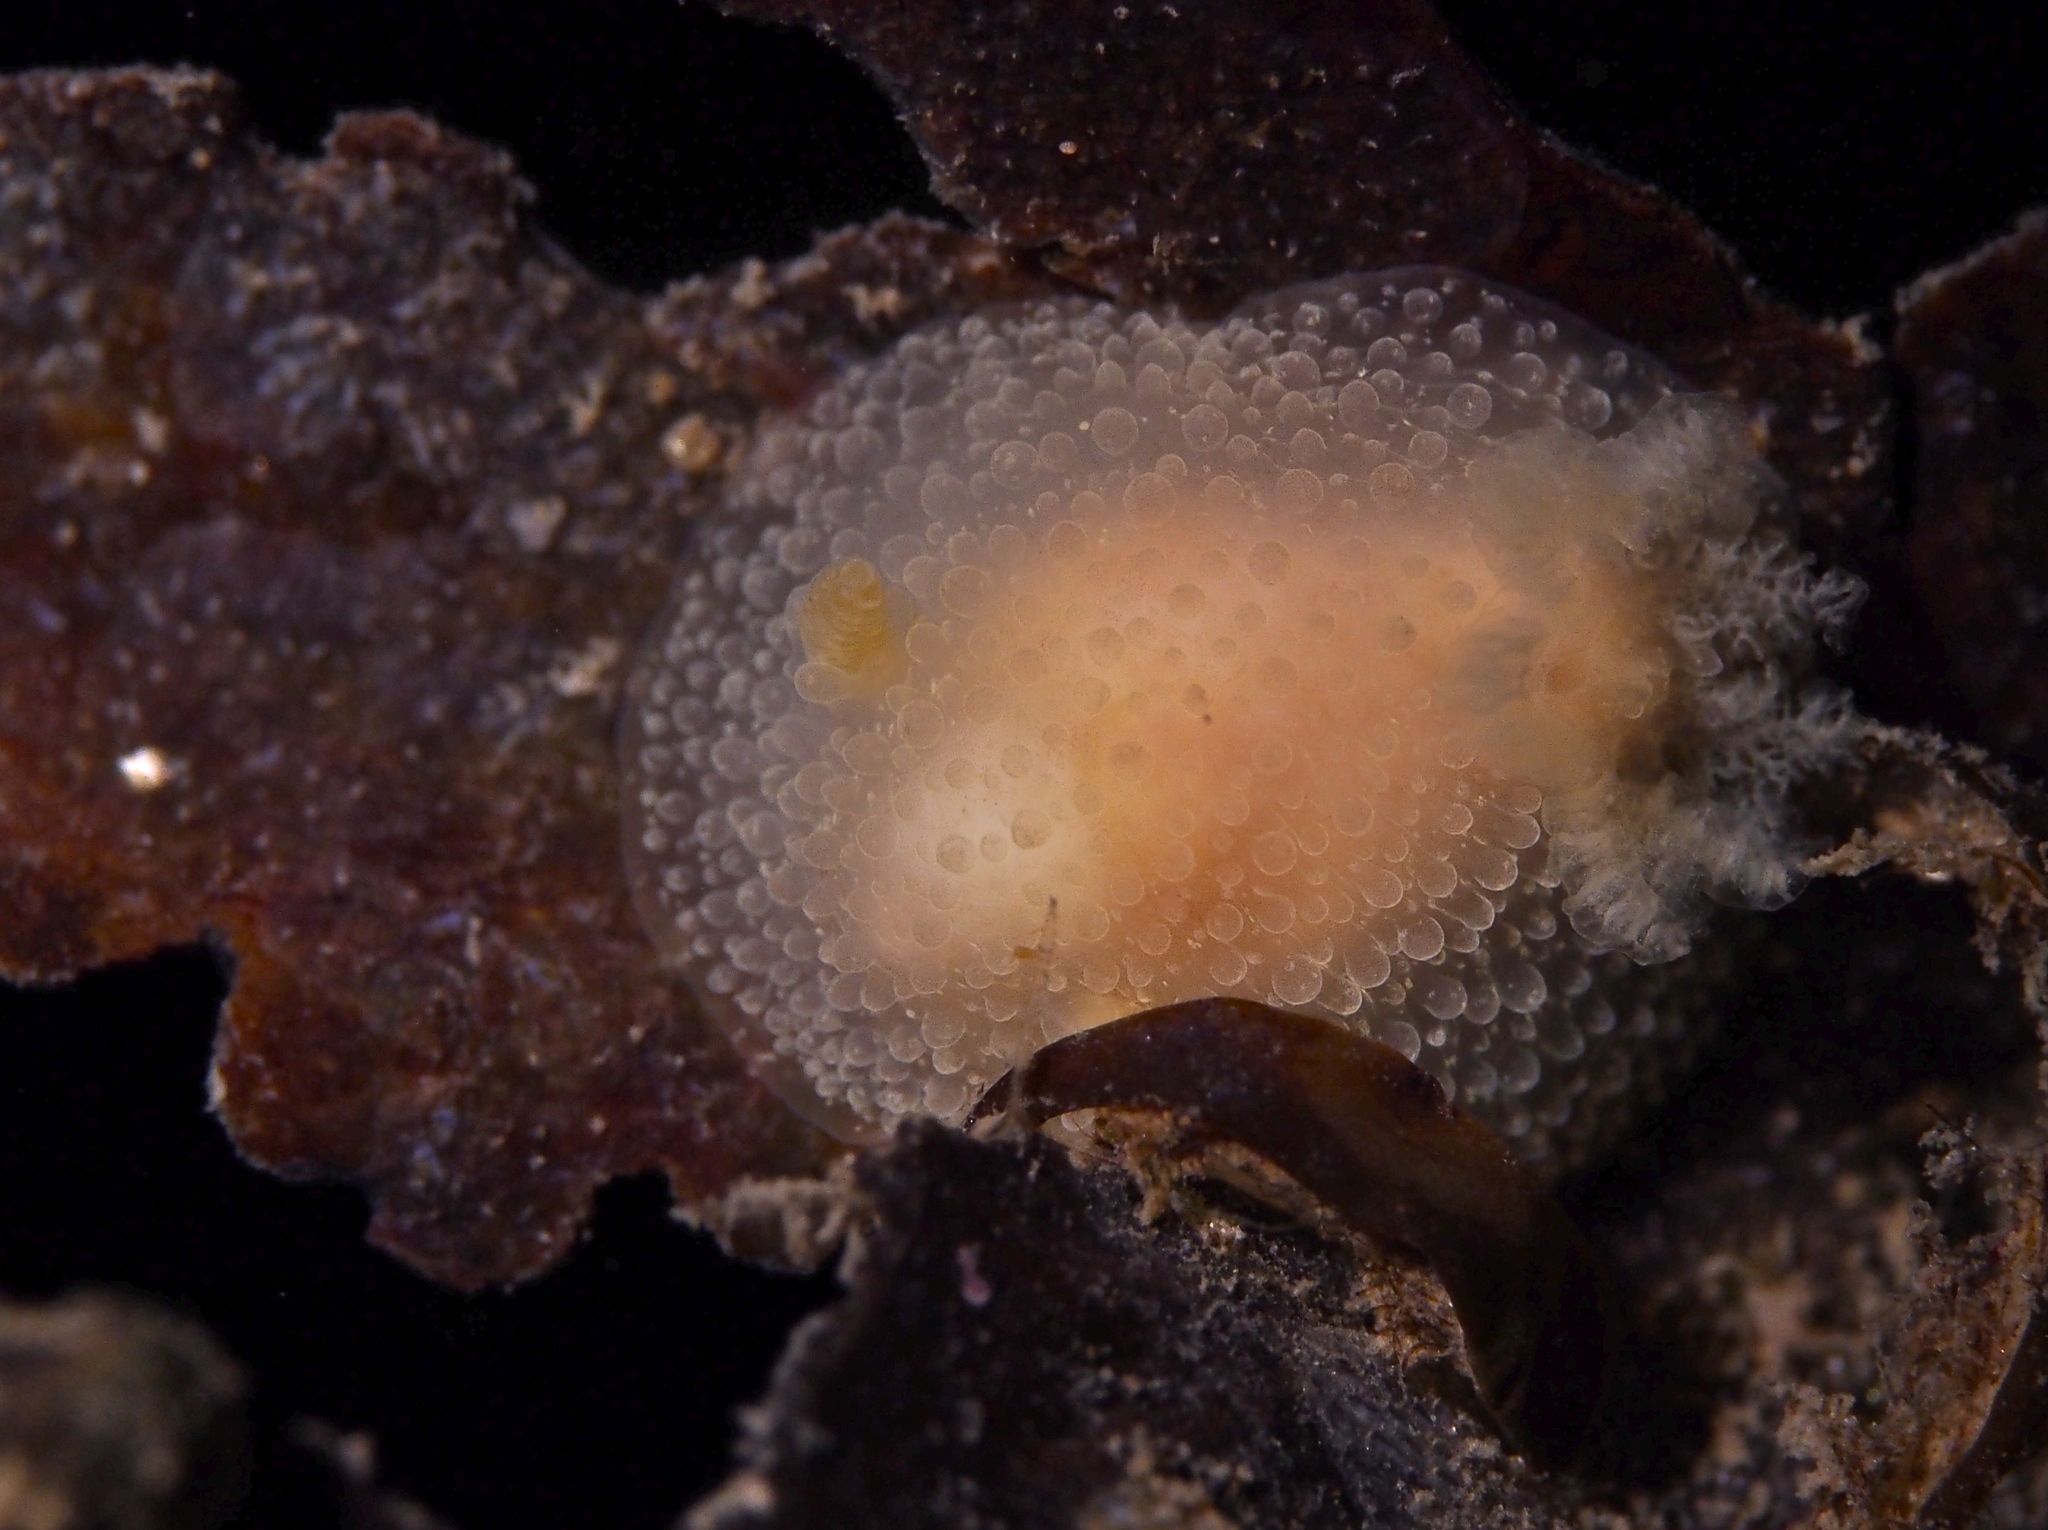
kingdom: Animalia
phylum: Mollusca
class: Gastropoda
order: Nudibranchia
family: Onchidorididae
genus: Acanthodoris
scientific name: Acanthodoris pilosa
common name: Hairy spiny doris
